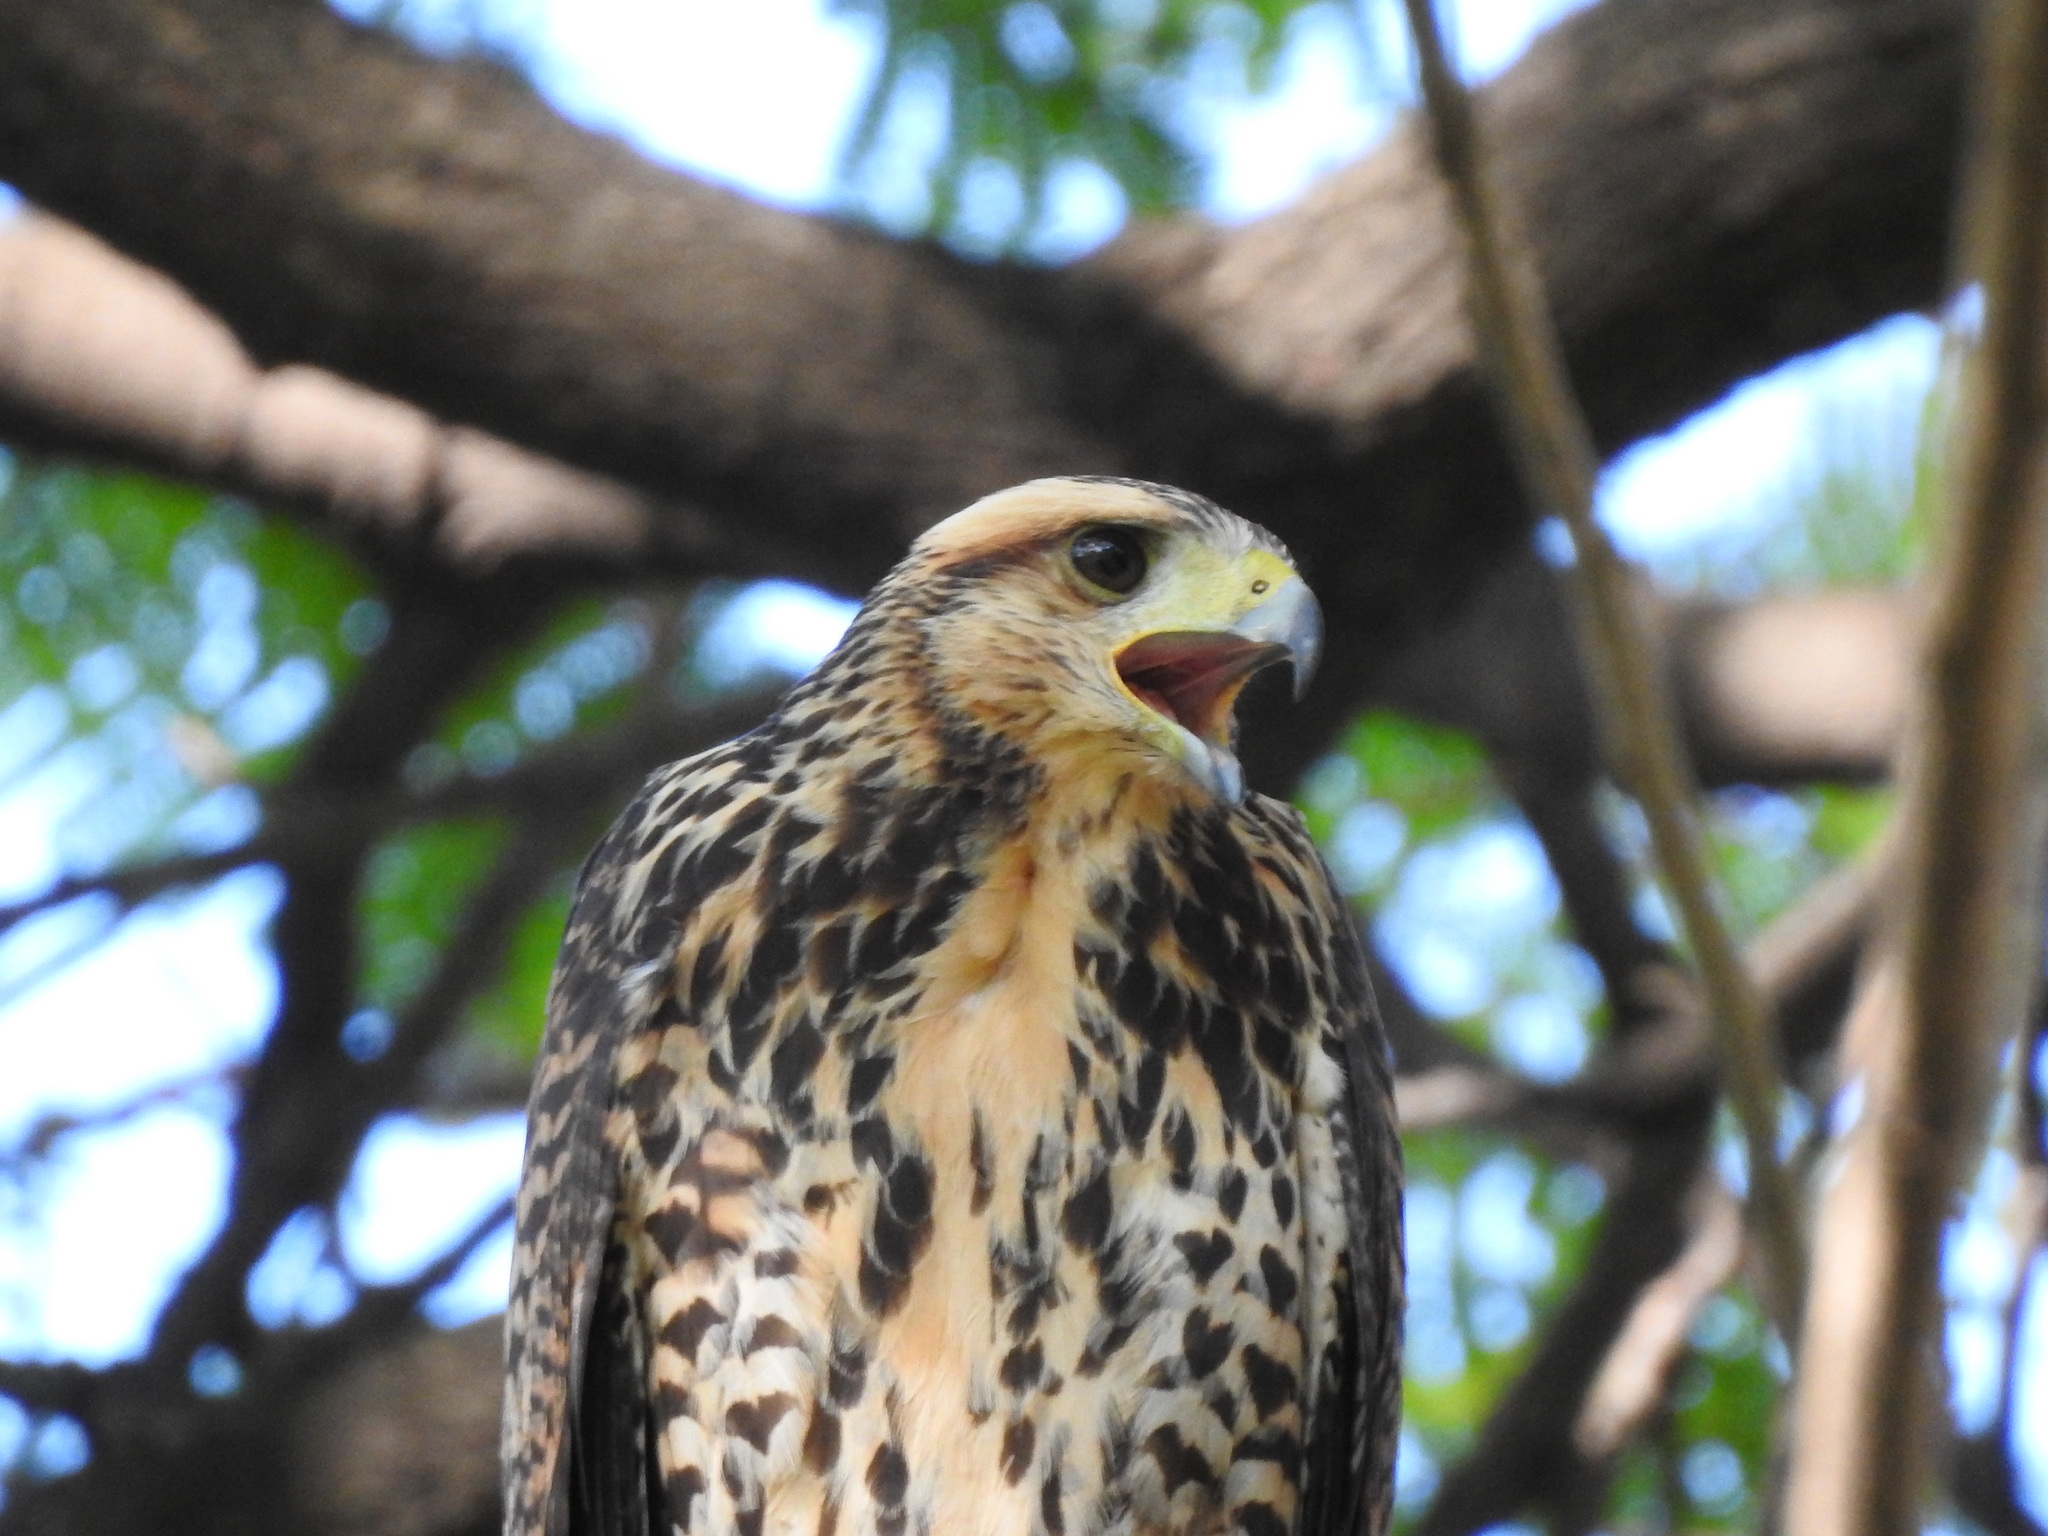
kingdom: Animalia
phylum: Chordata
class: Aves
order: Accipitriformes
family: Accipitridae
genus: Parabuteo
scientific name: Parabuteo unicinctus
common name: Harris's hawk
